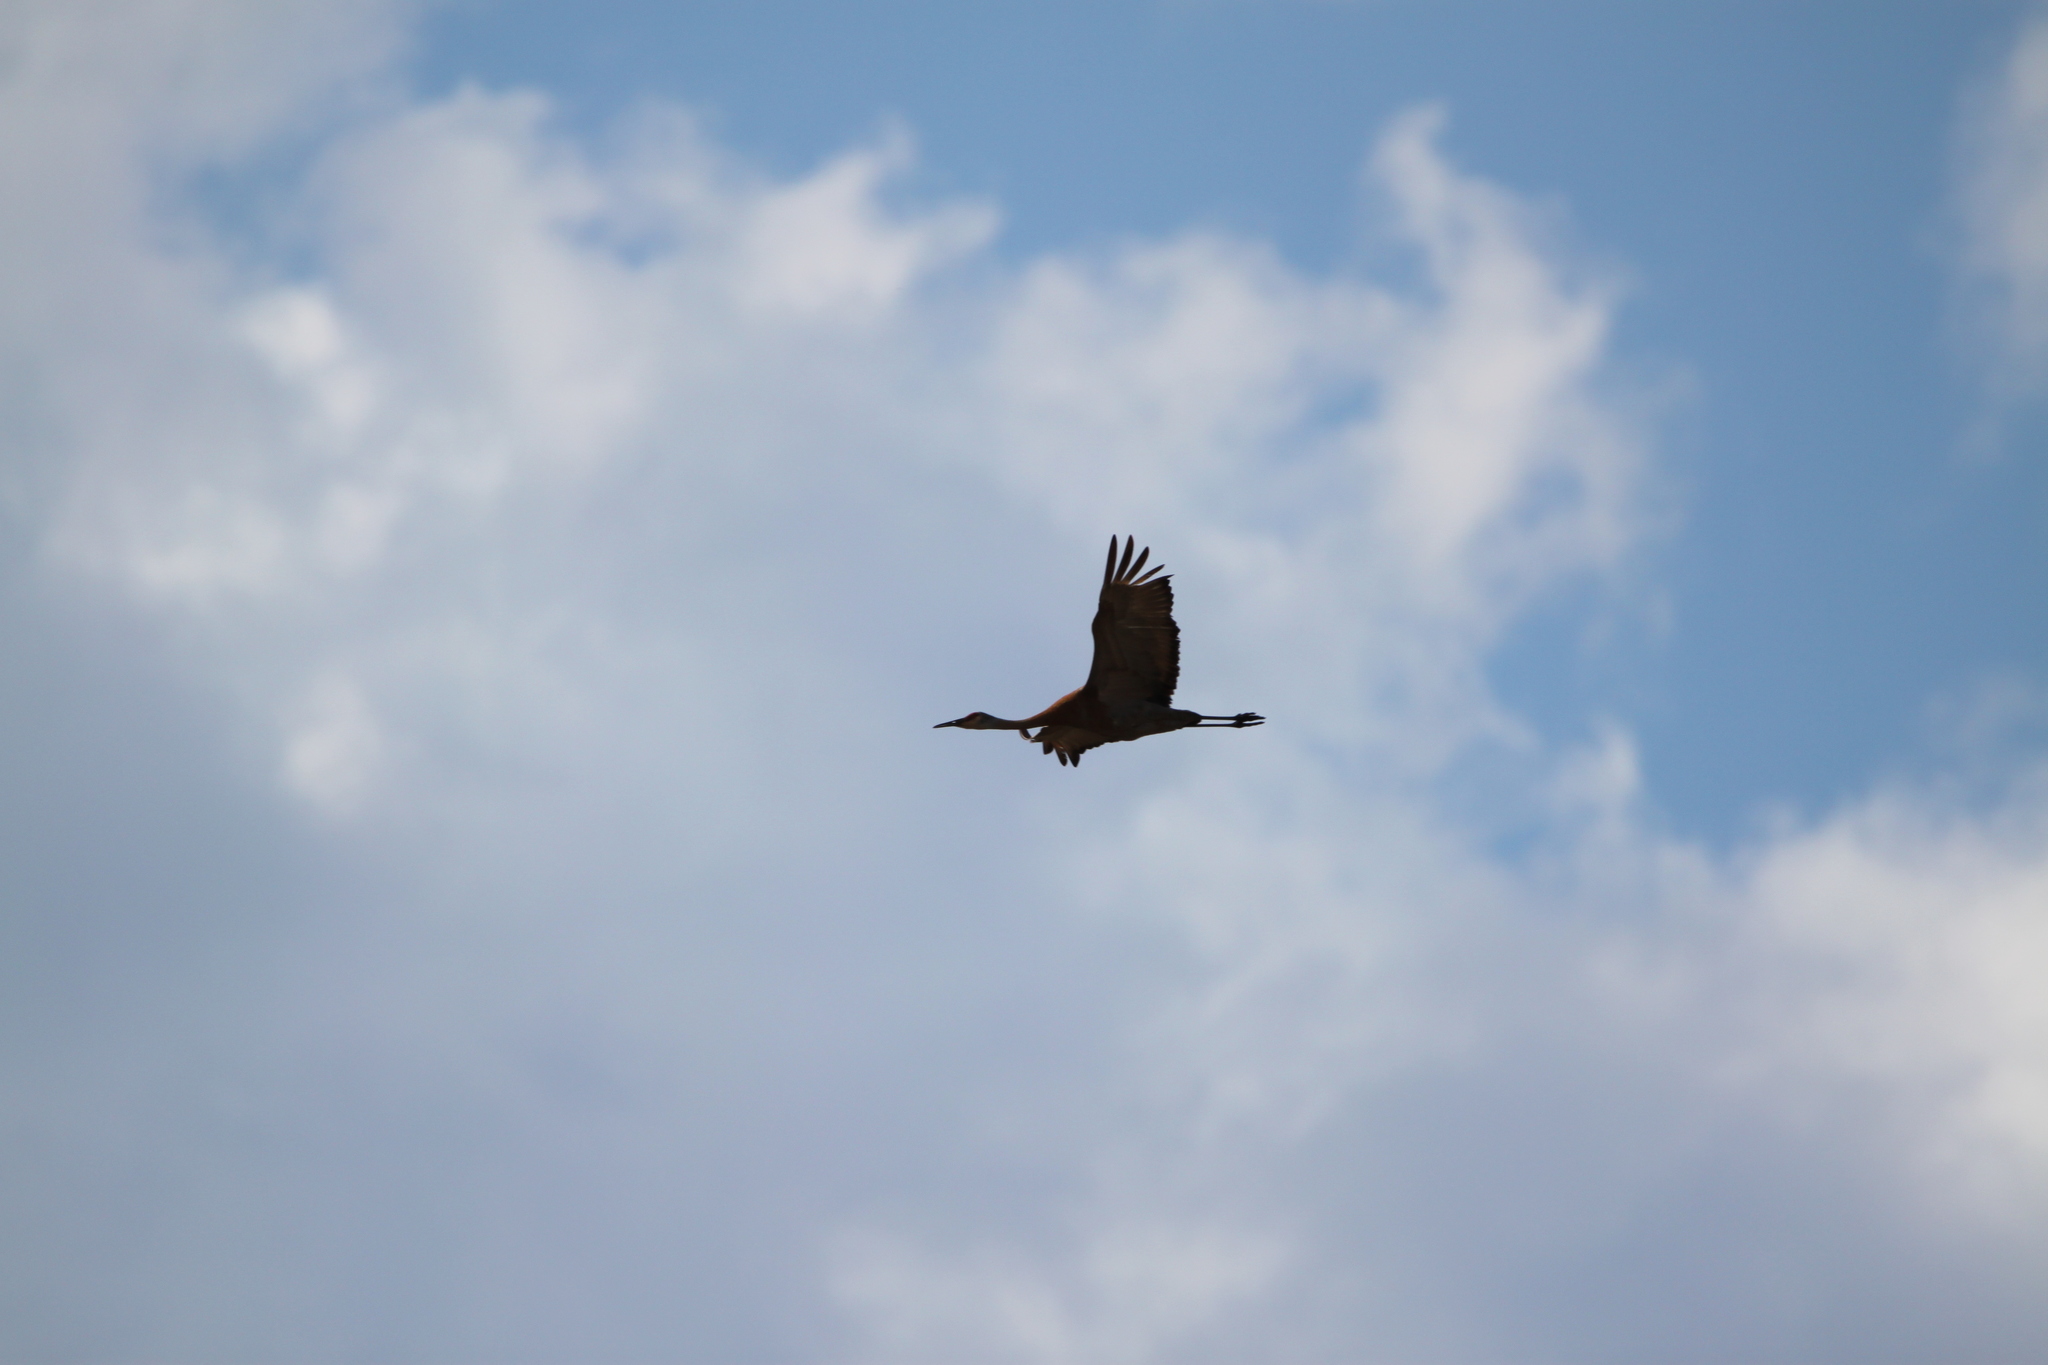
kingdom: Animalia
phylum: Chordata
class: Aves
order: Gruiformes
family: Gruidae
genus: Grus
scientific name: Grus canadensis
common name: Sandhill crane
